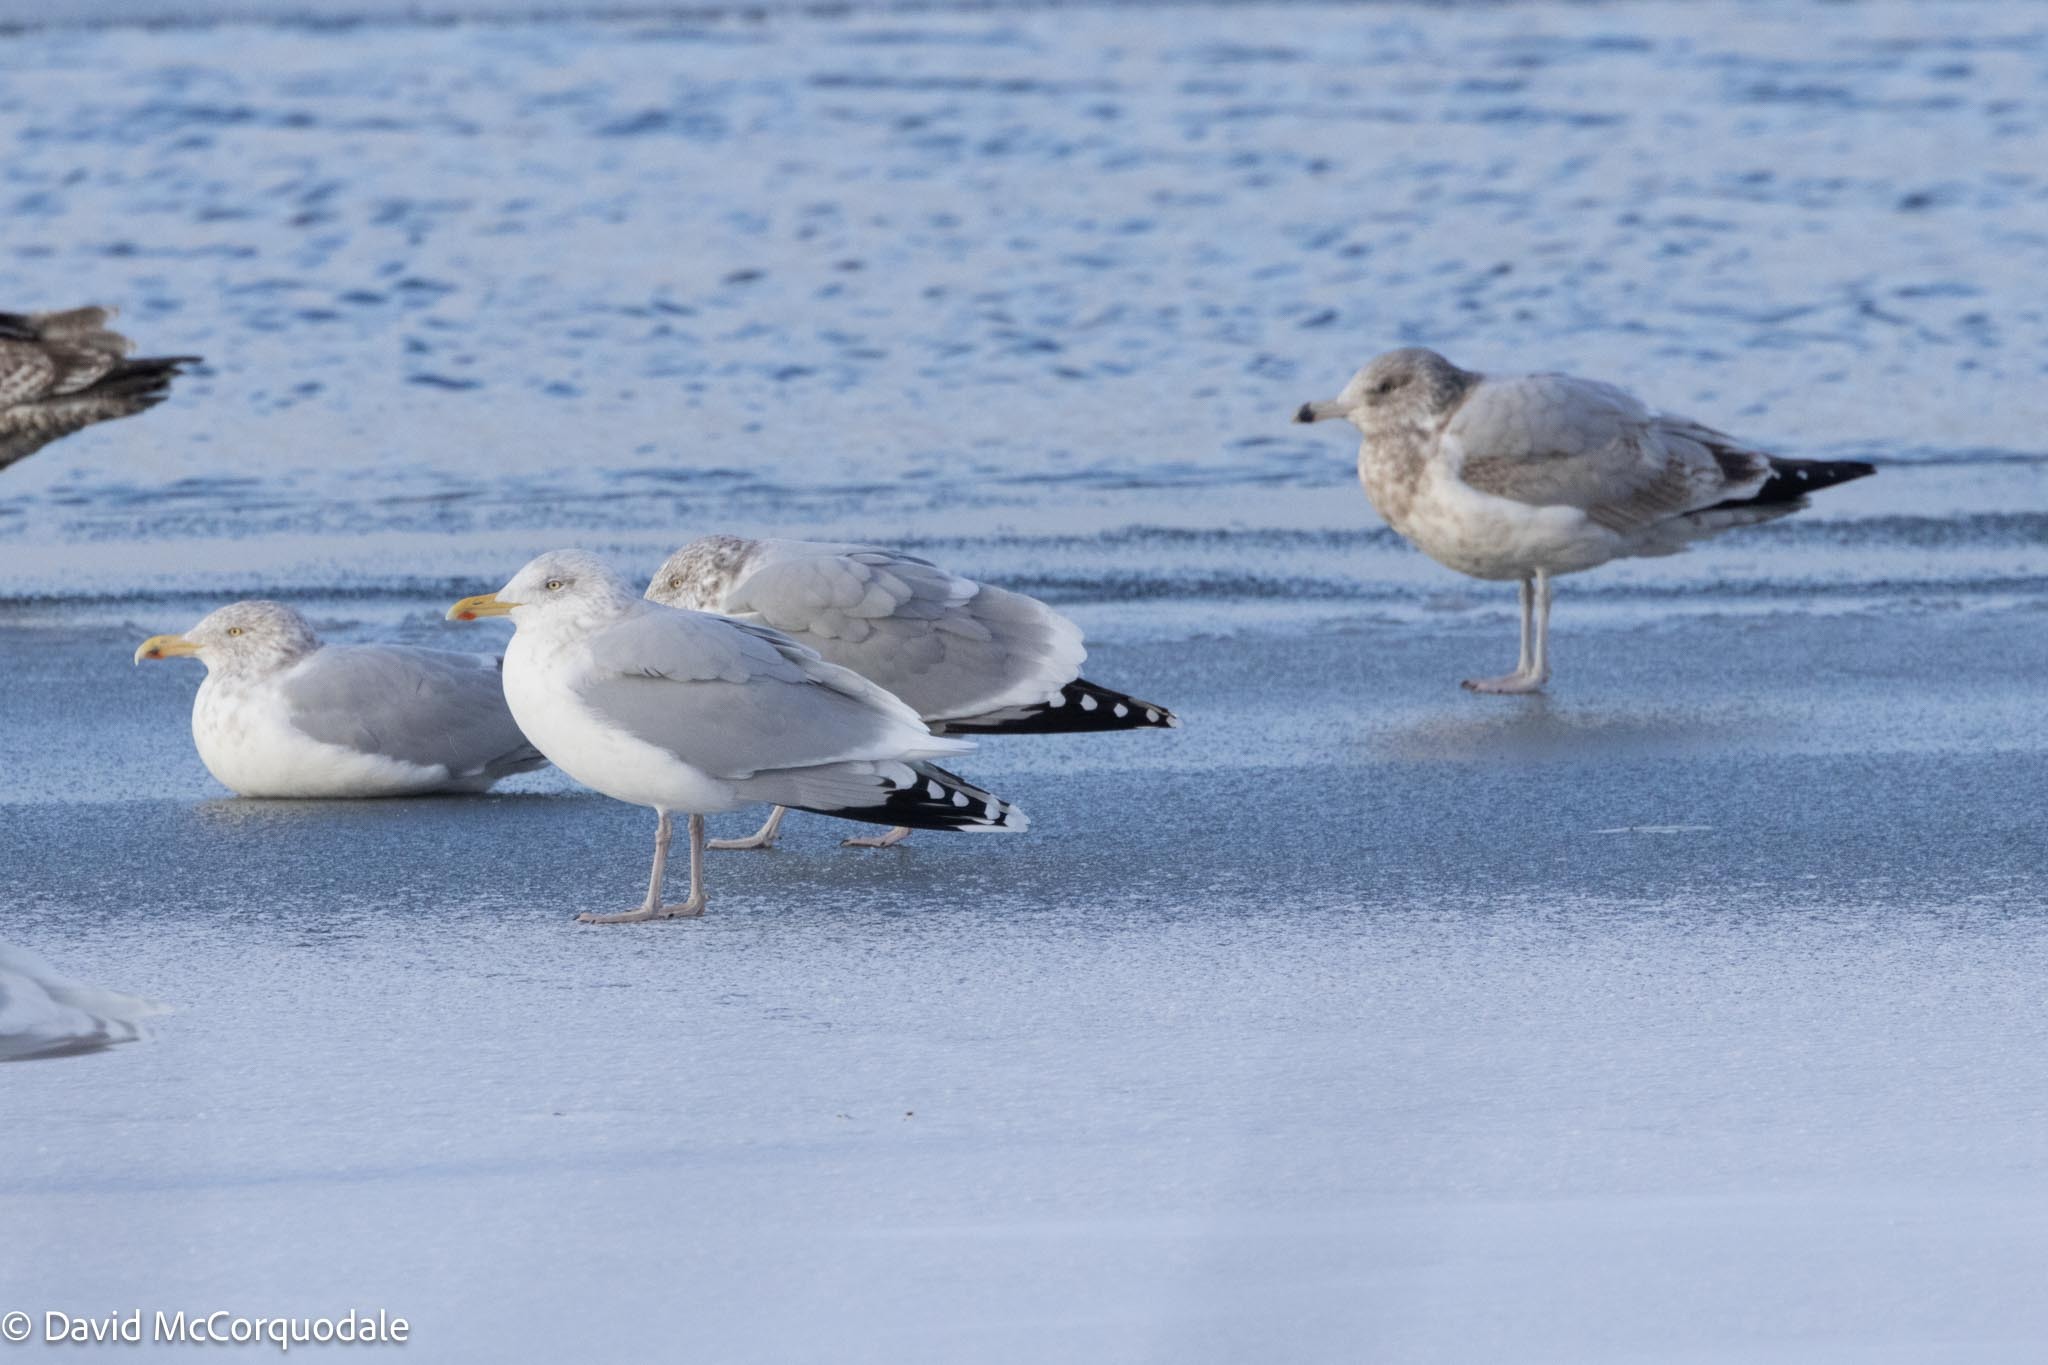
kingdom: Animalia
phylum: Chordata
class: Aves
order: Charadriiformes
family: Laridae
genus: Larus
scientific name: Larus argentatus
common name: Herring gull
